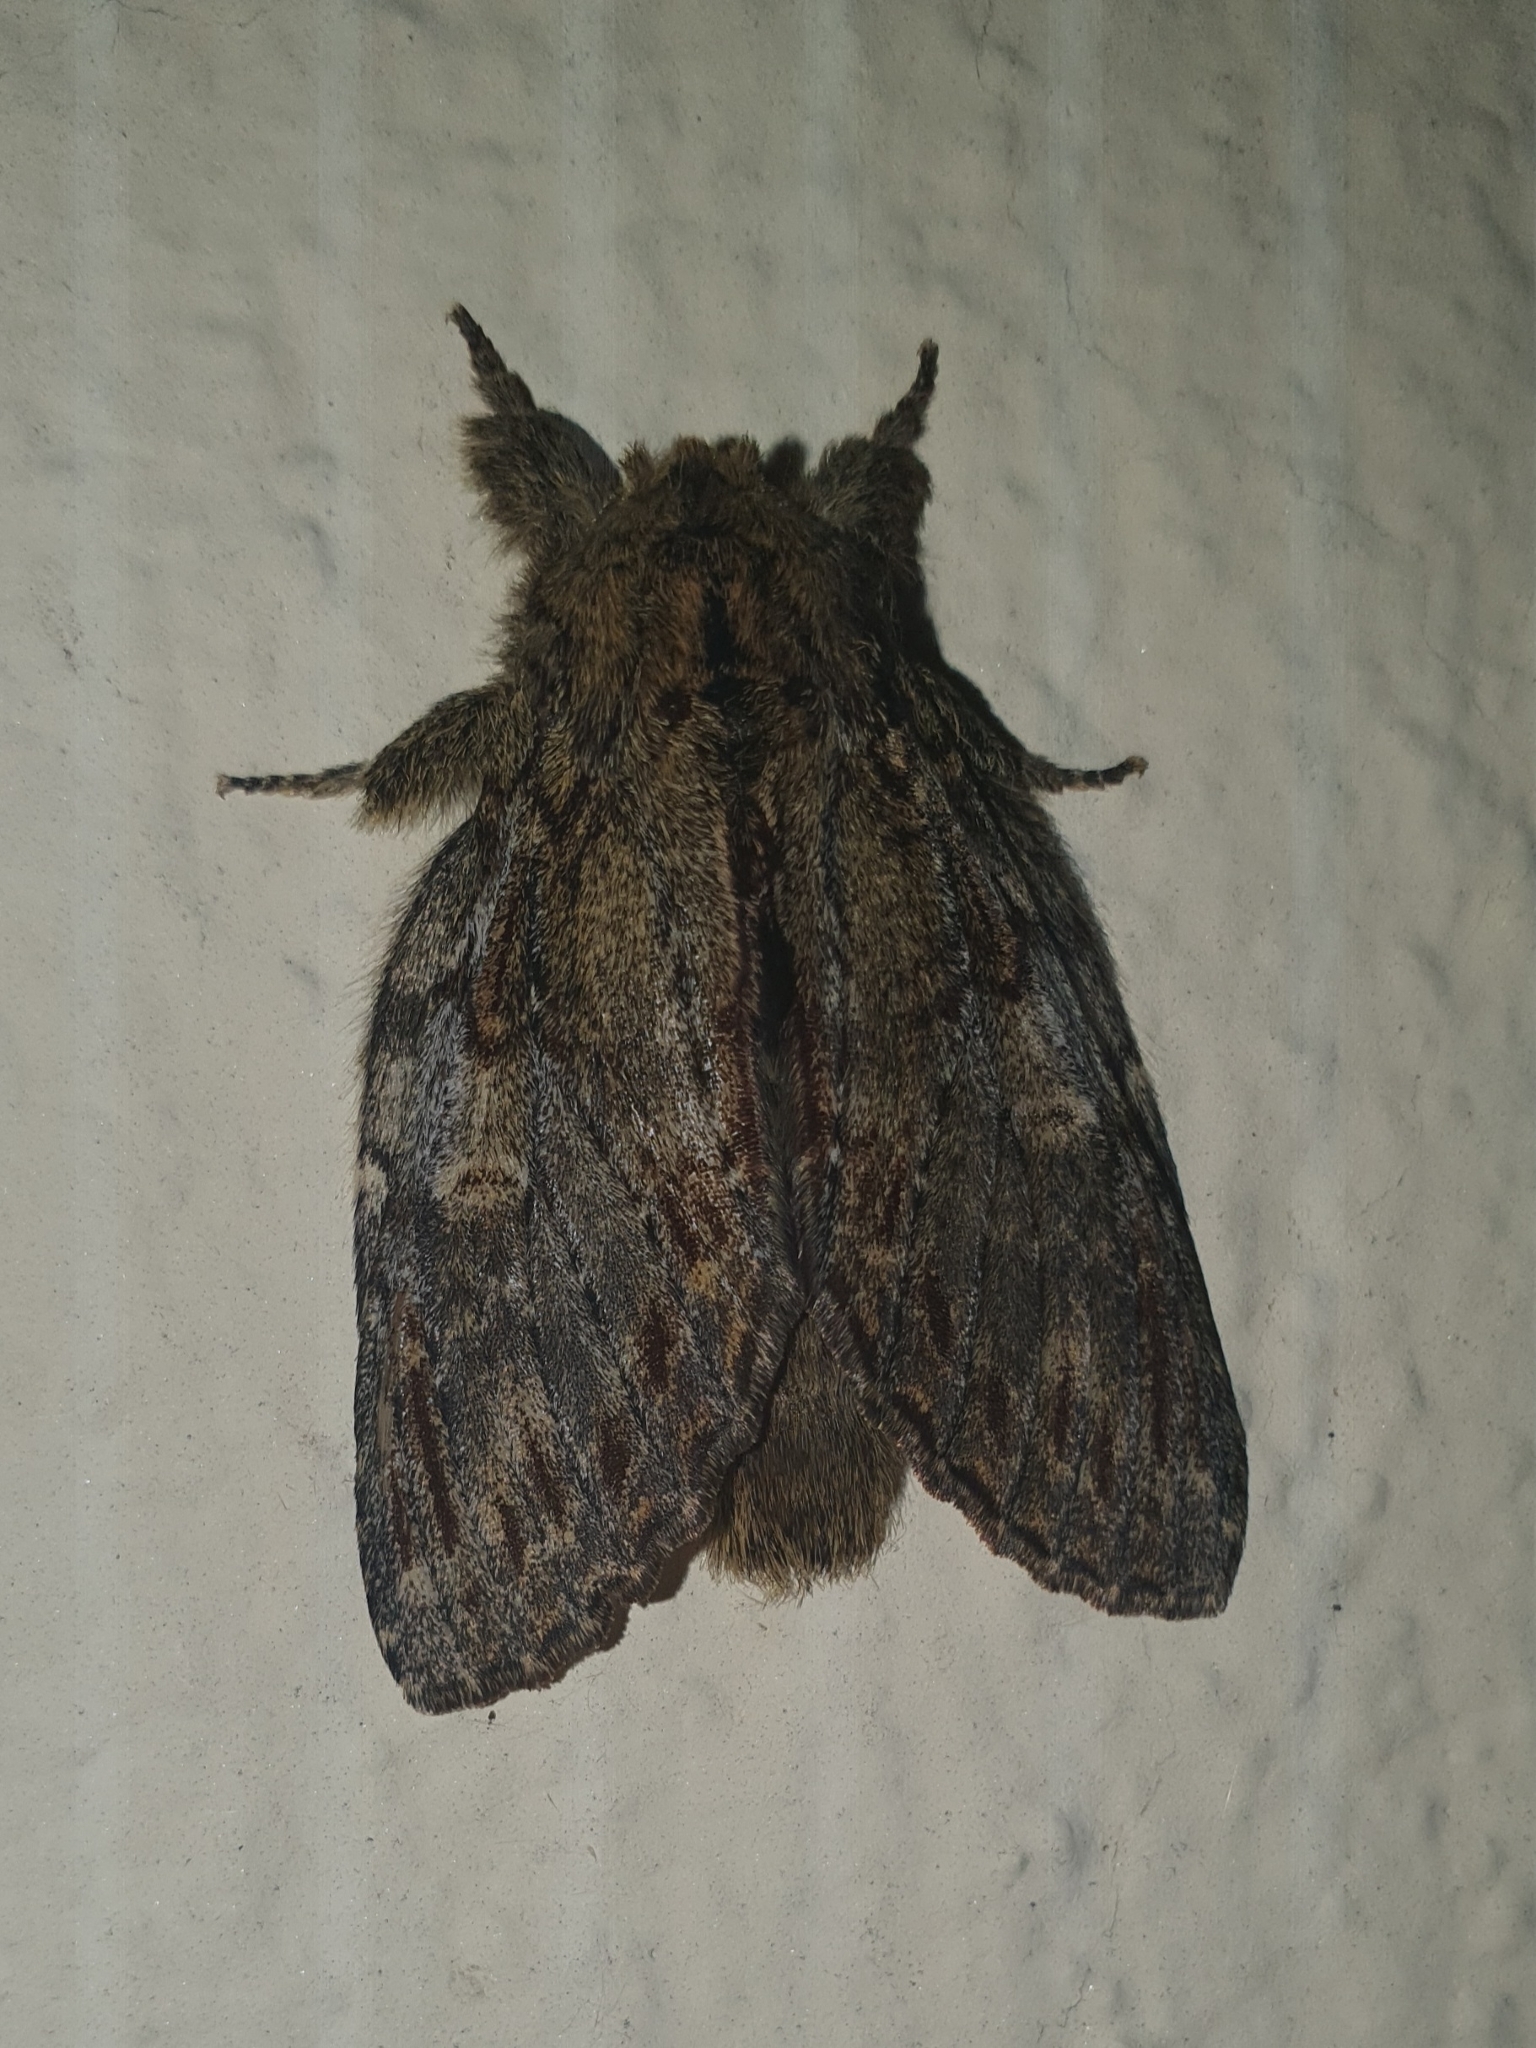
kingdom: Animalia
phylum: Arthropoda
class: Insecta
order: Lepidoptera
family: Notodontidae
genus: Peridea
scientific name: Peridea anceps
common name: Great prominent
